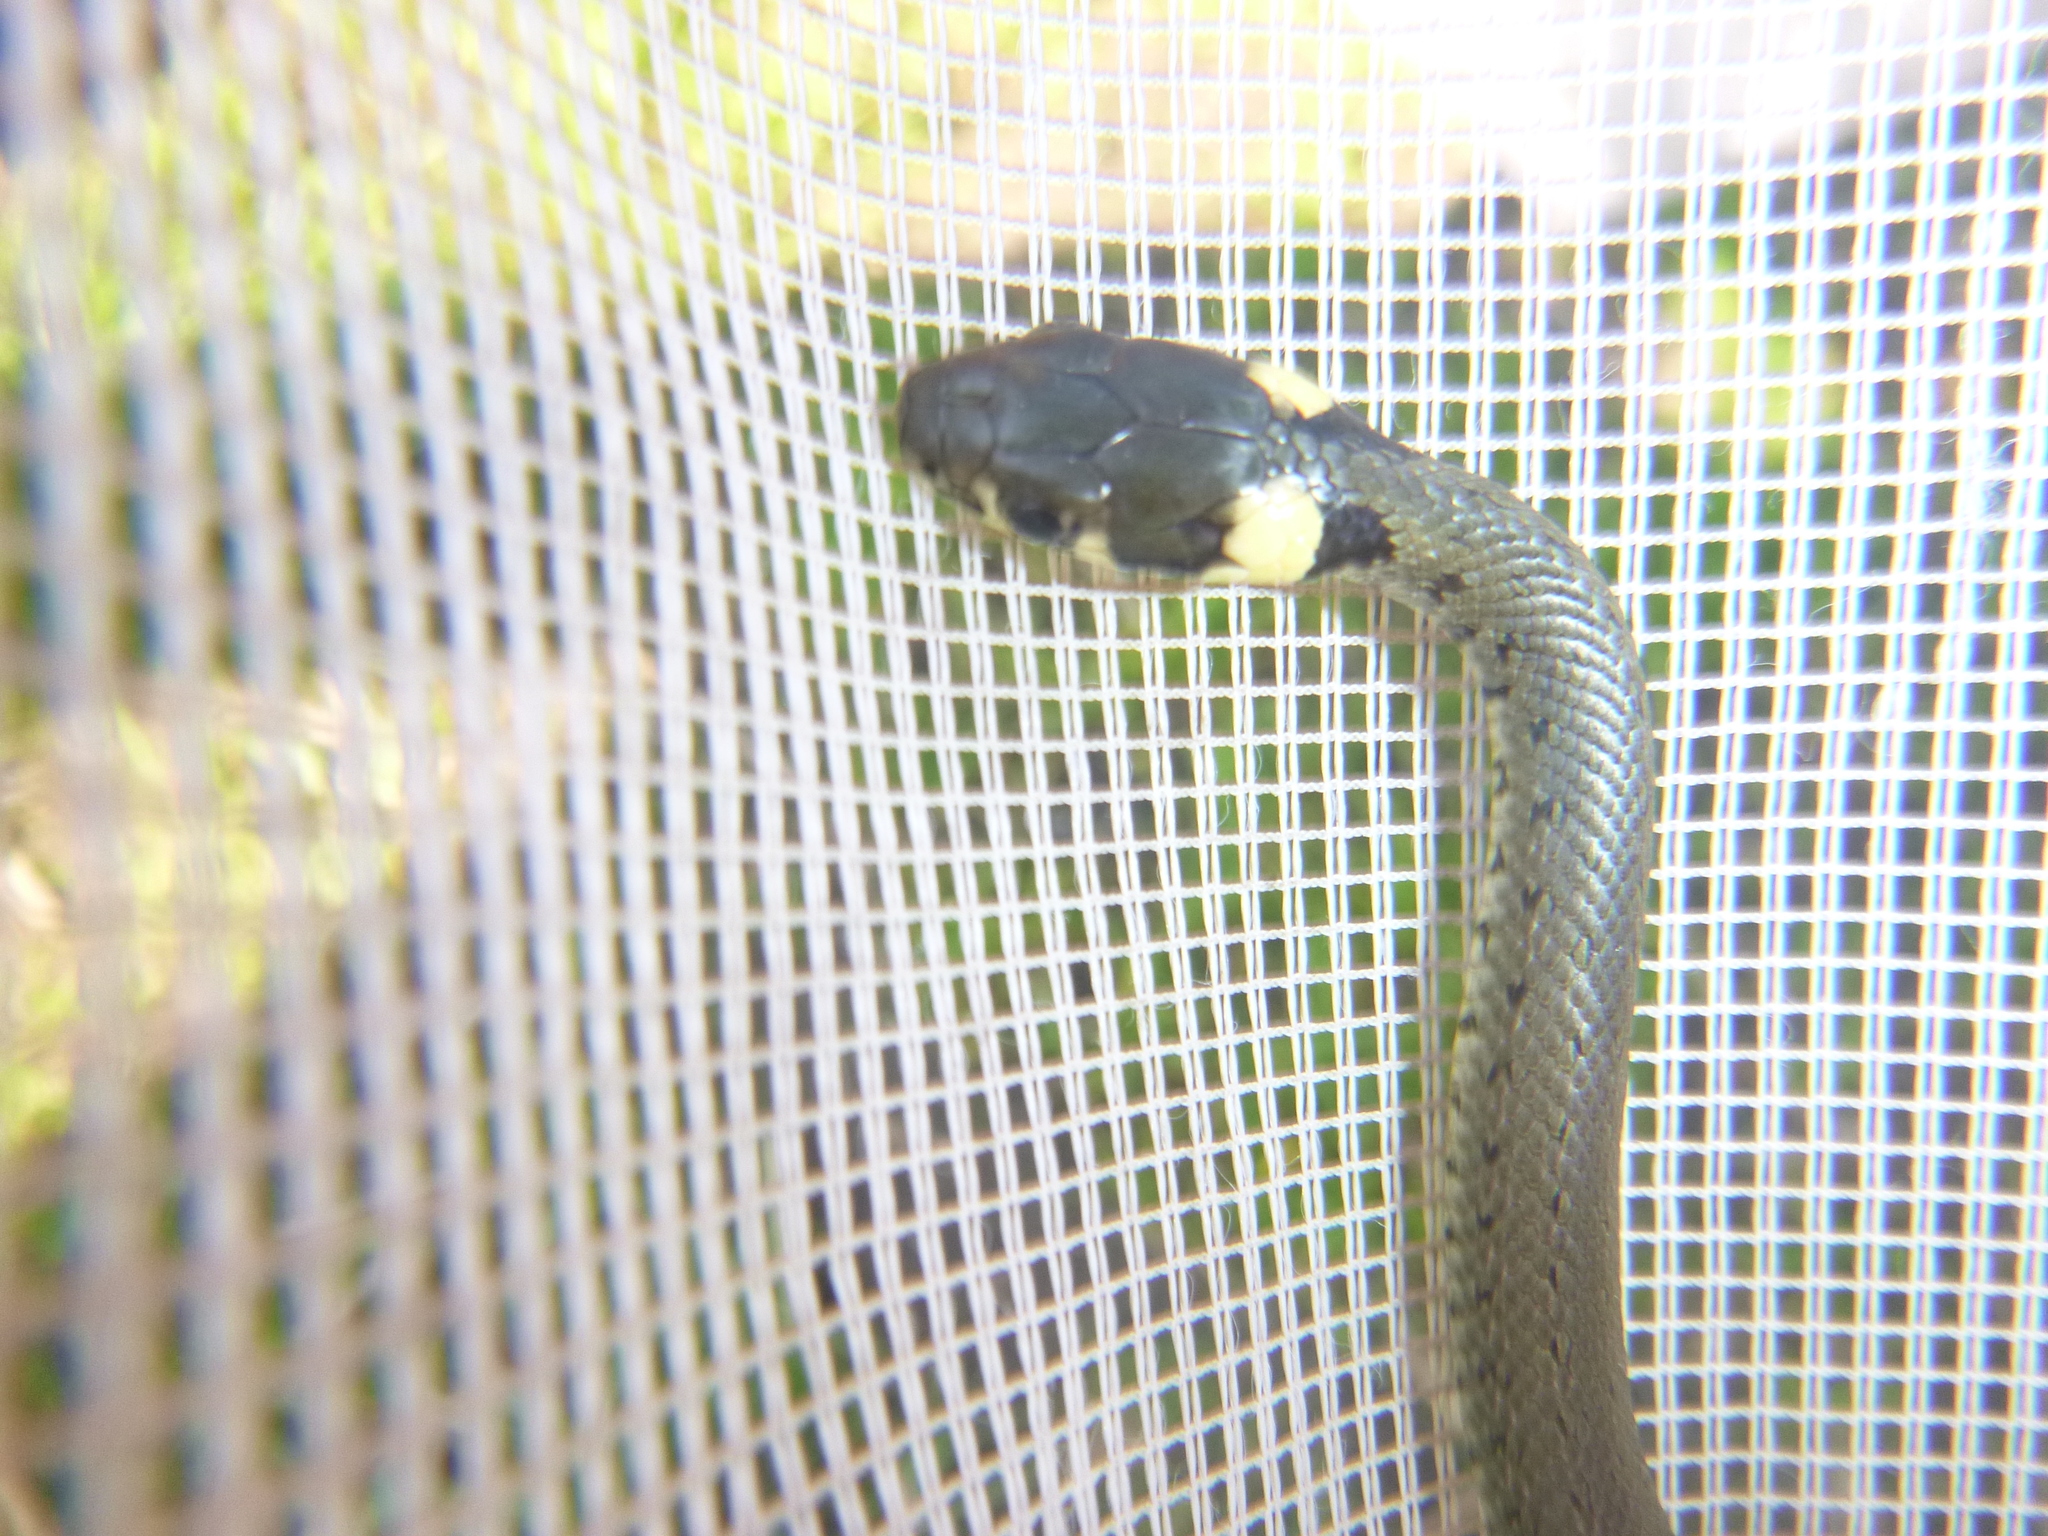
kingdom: Animalia
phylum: Chordata
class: Squamata
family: Colubridae
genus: Natrix
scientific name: Natrix natrix
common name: Grass snake
